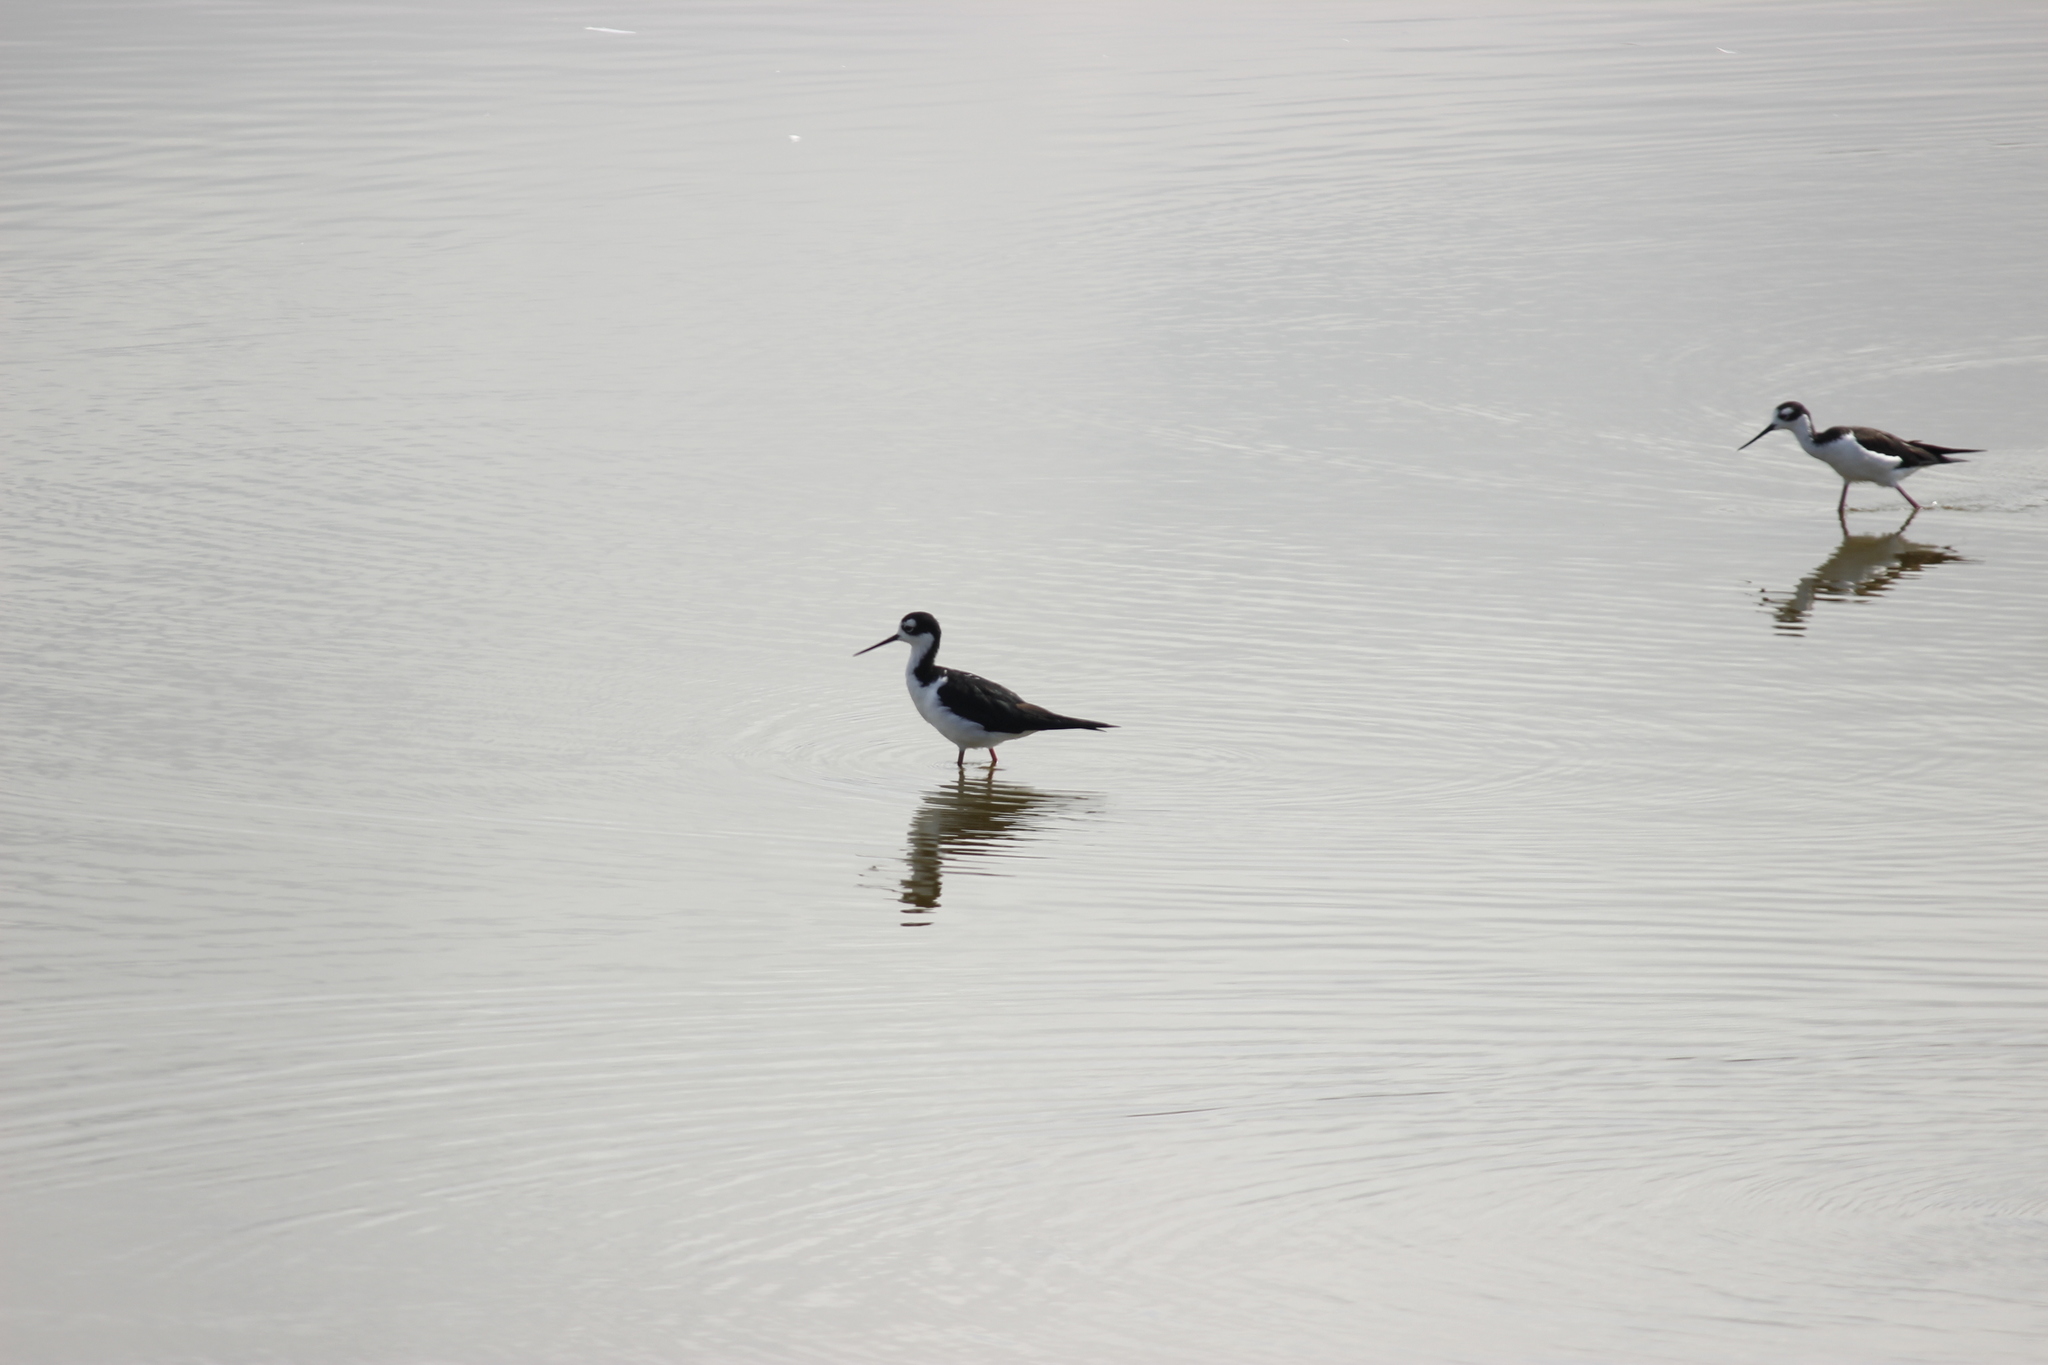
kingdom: Animalia
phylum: Chordata
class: Aves
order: Charadriiformes
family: Recurvirostridae
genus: Himantopus
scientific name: Himantopus mexicanus
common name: Black-necked stilt
